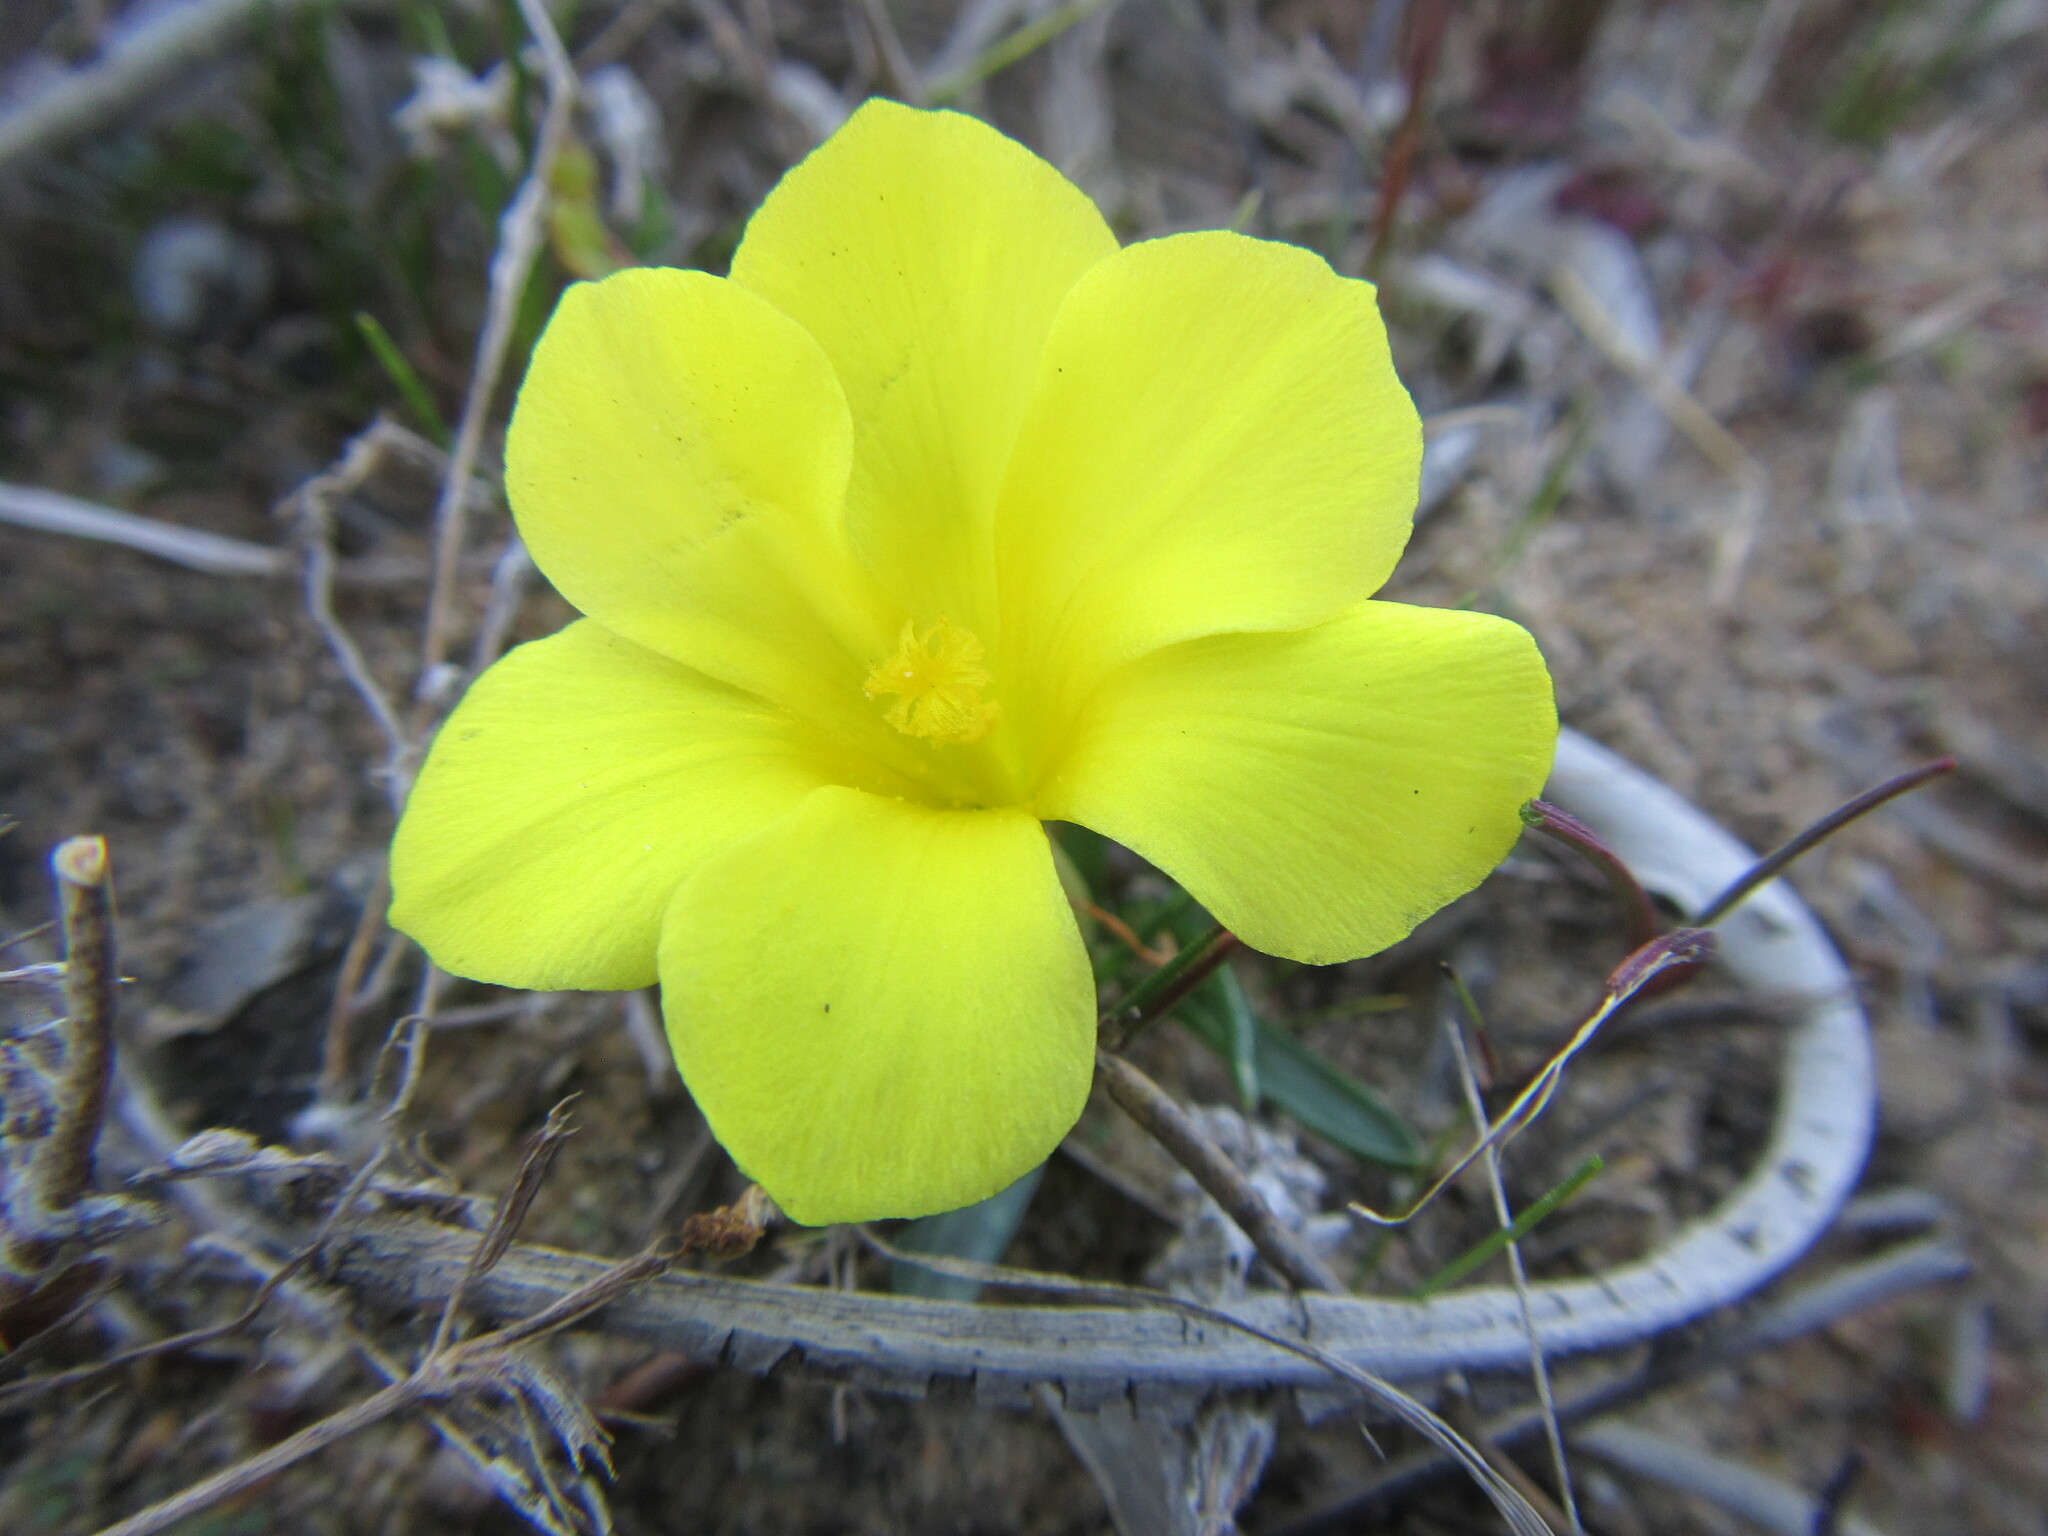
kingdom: Plantae
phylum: Tracheophyta
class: Liliopsida
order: Asparagales
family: Iridaceae
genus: Moraea
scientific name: Moraea fugacissima
